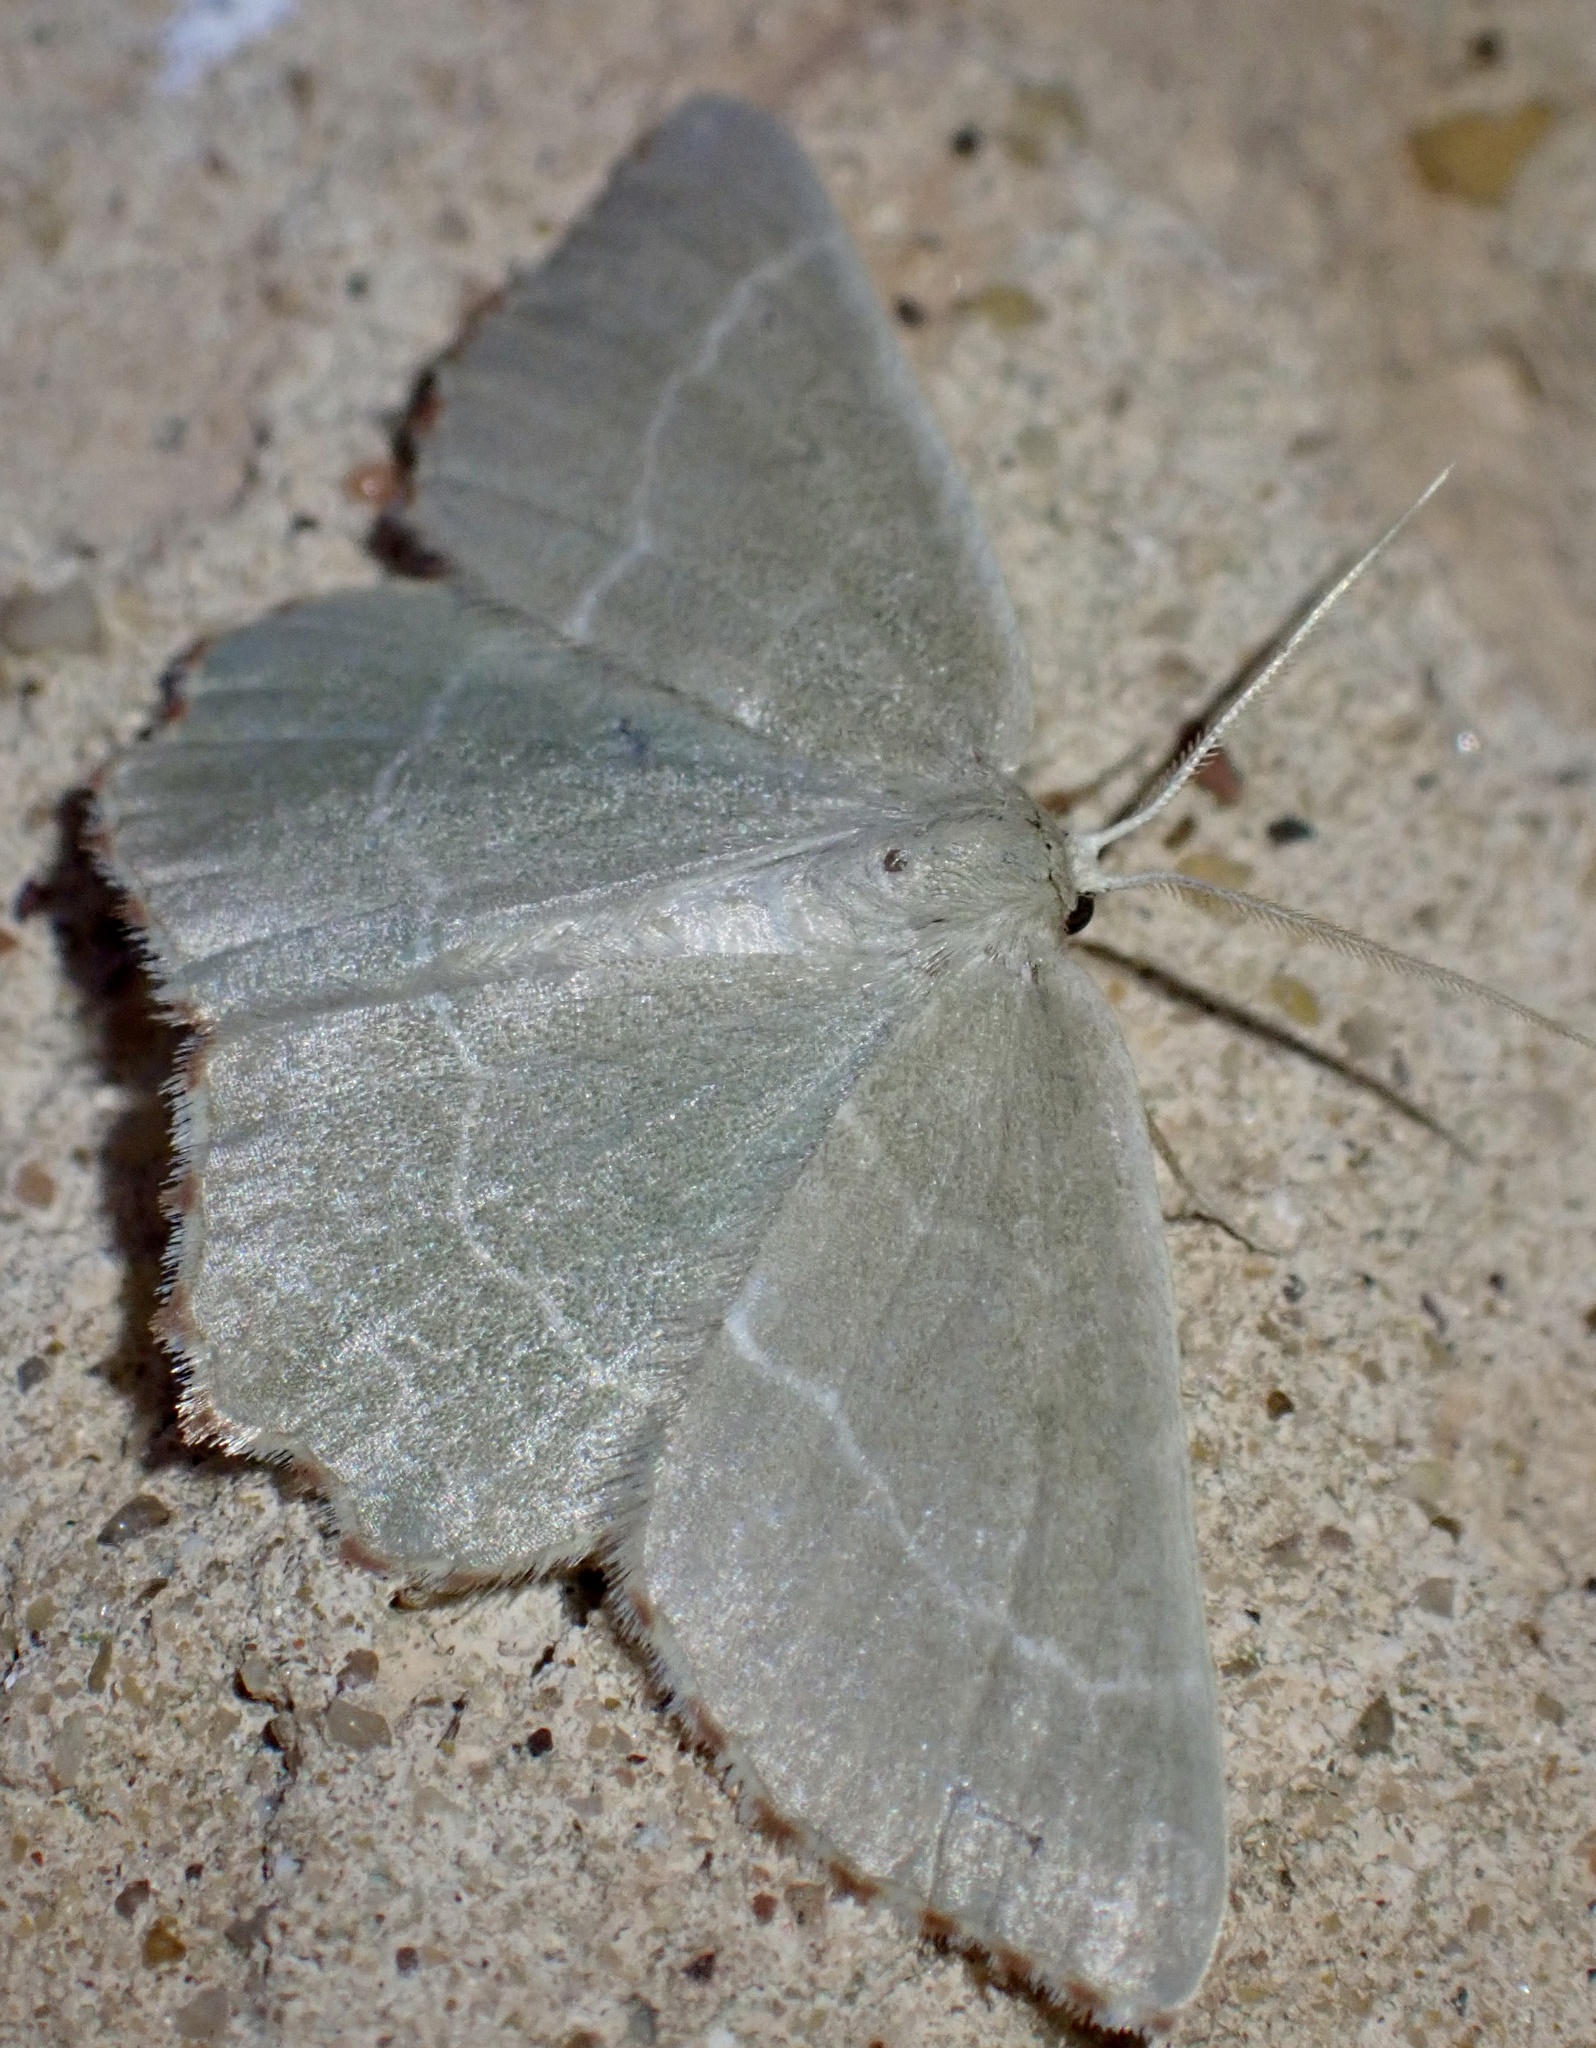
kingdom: Animalia
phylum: Arthropoda
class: Insecta
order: Lepidoptera
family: Geometridae
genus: Thalera
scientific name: Thalera fimbrialis
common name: Sussex emerald
